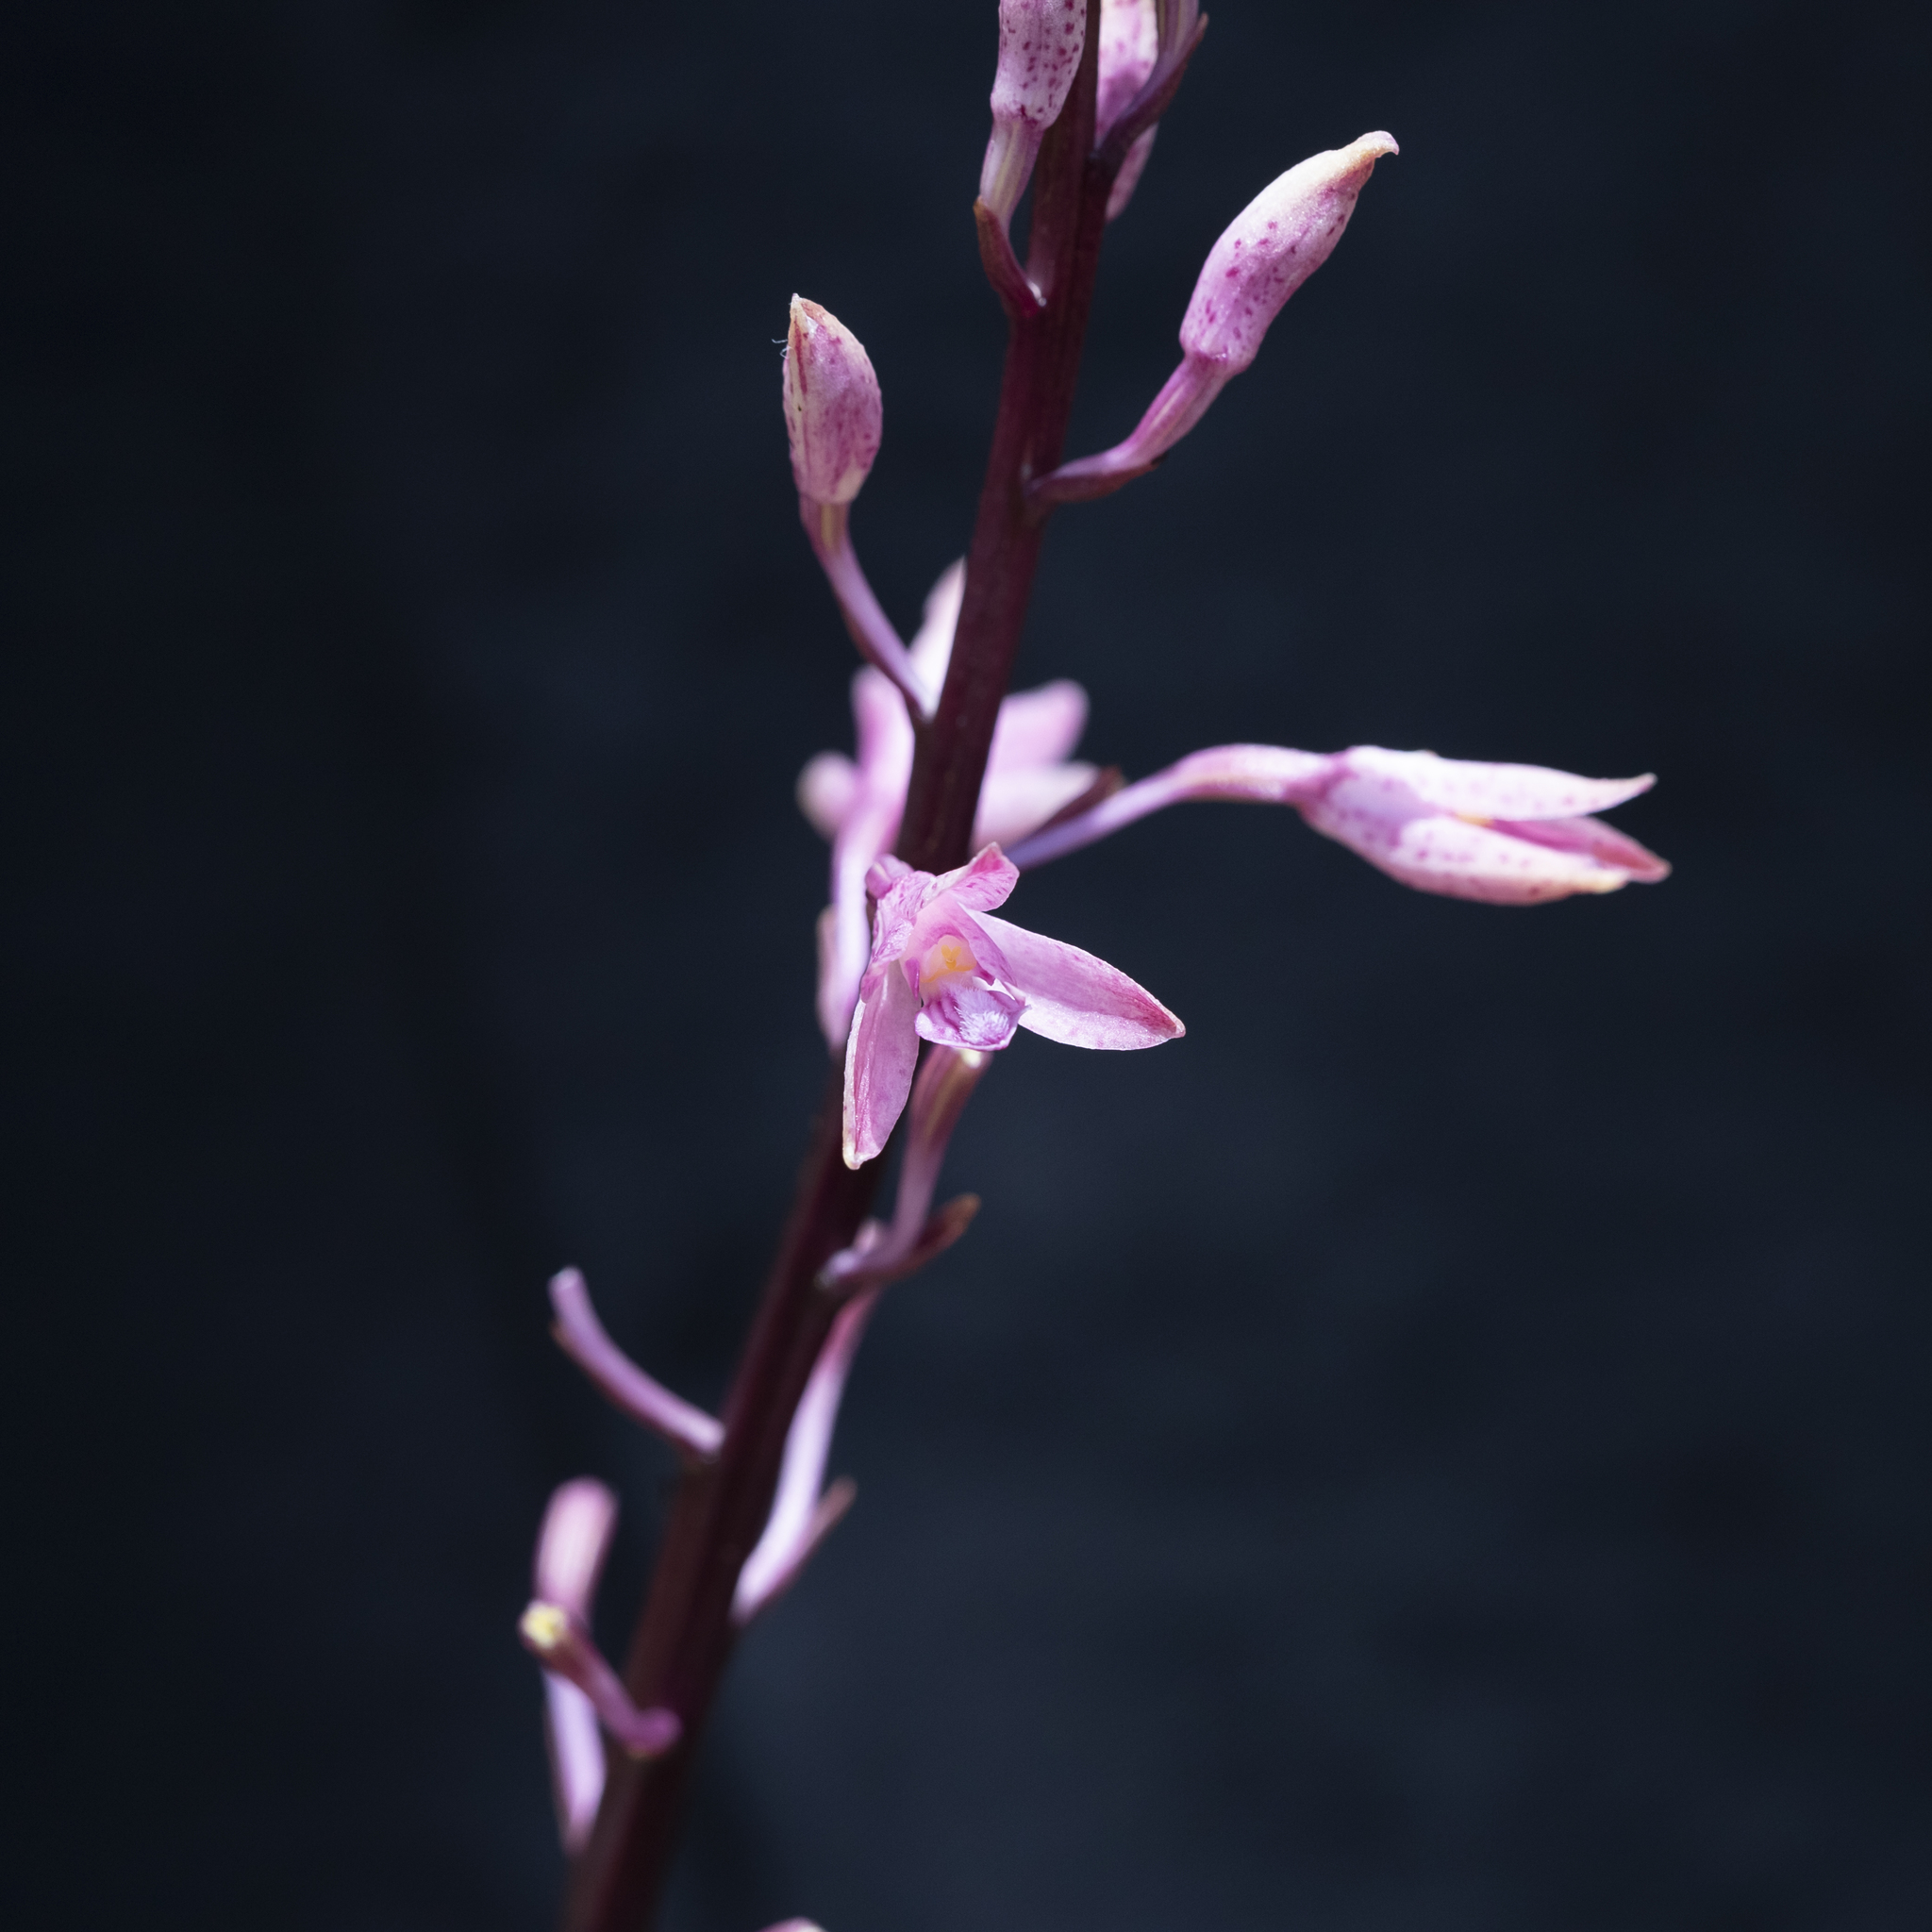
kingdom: Plantae
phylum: Tracheophyta
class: Liliopsida
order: Asparagales
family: Orchidaceae
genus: Dipodium
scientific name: Dipodium roseum
